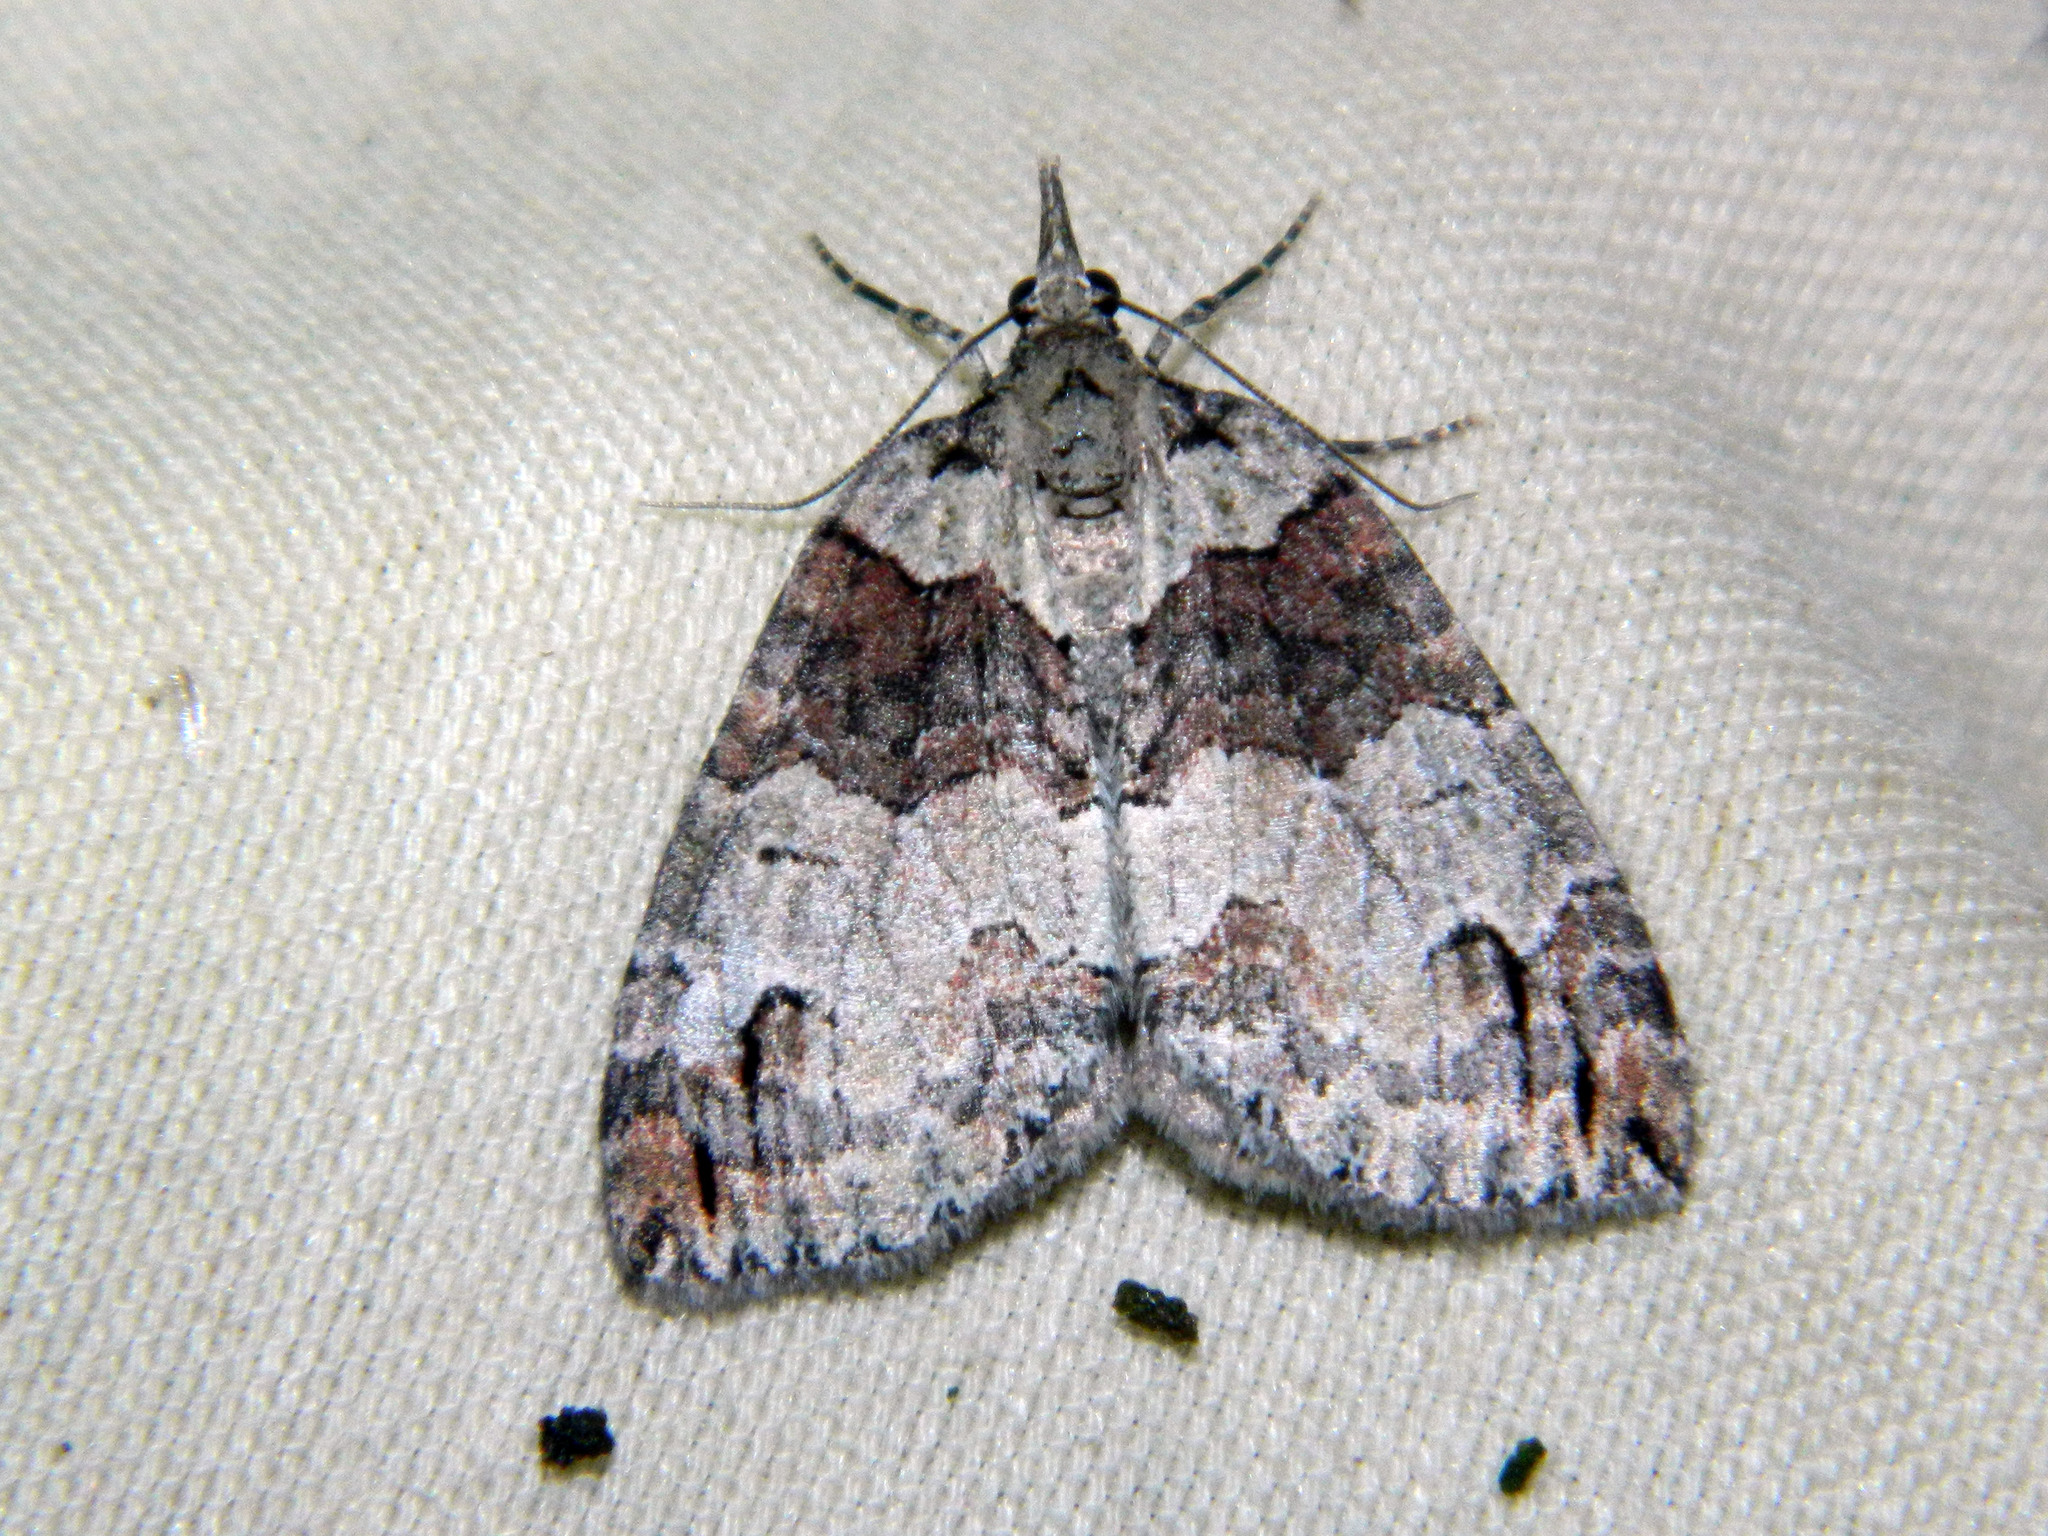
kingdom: Animalia
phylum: Arthropoda
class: Insecta
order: Lepidoptera
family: Geometridae
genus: Hydriomena
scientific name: Hydriomena ruberata
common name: Ruddy highflyer
